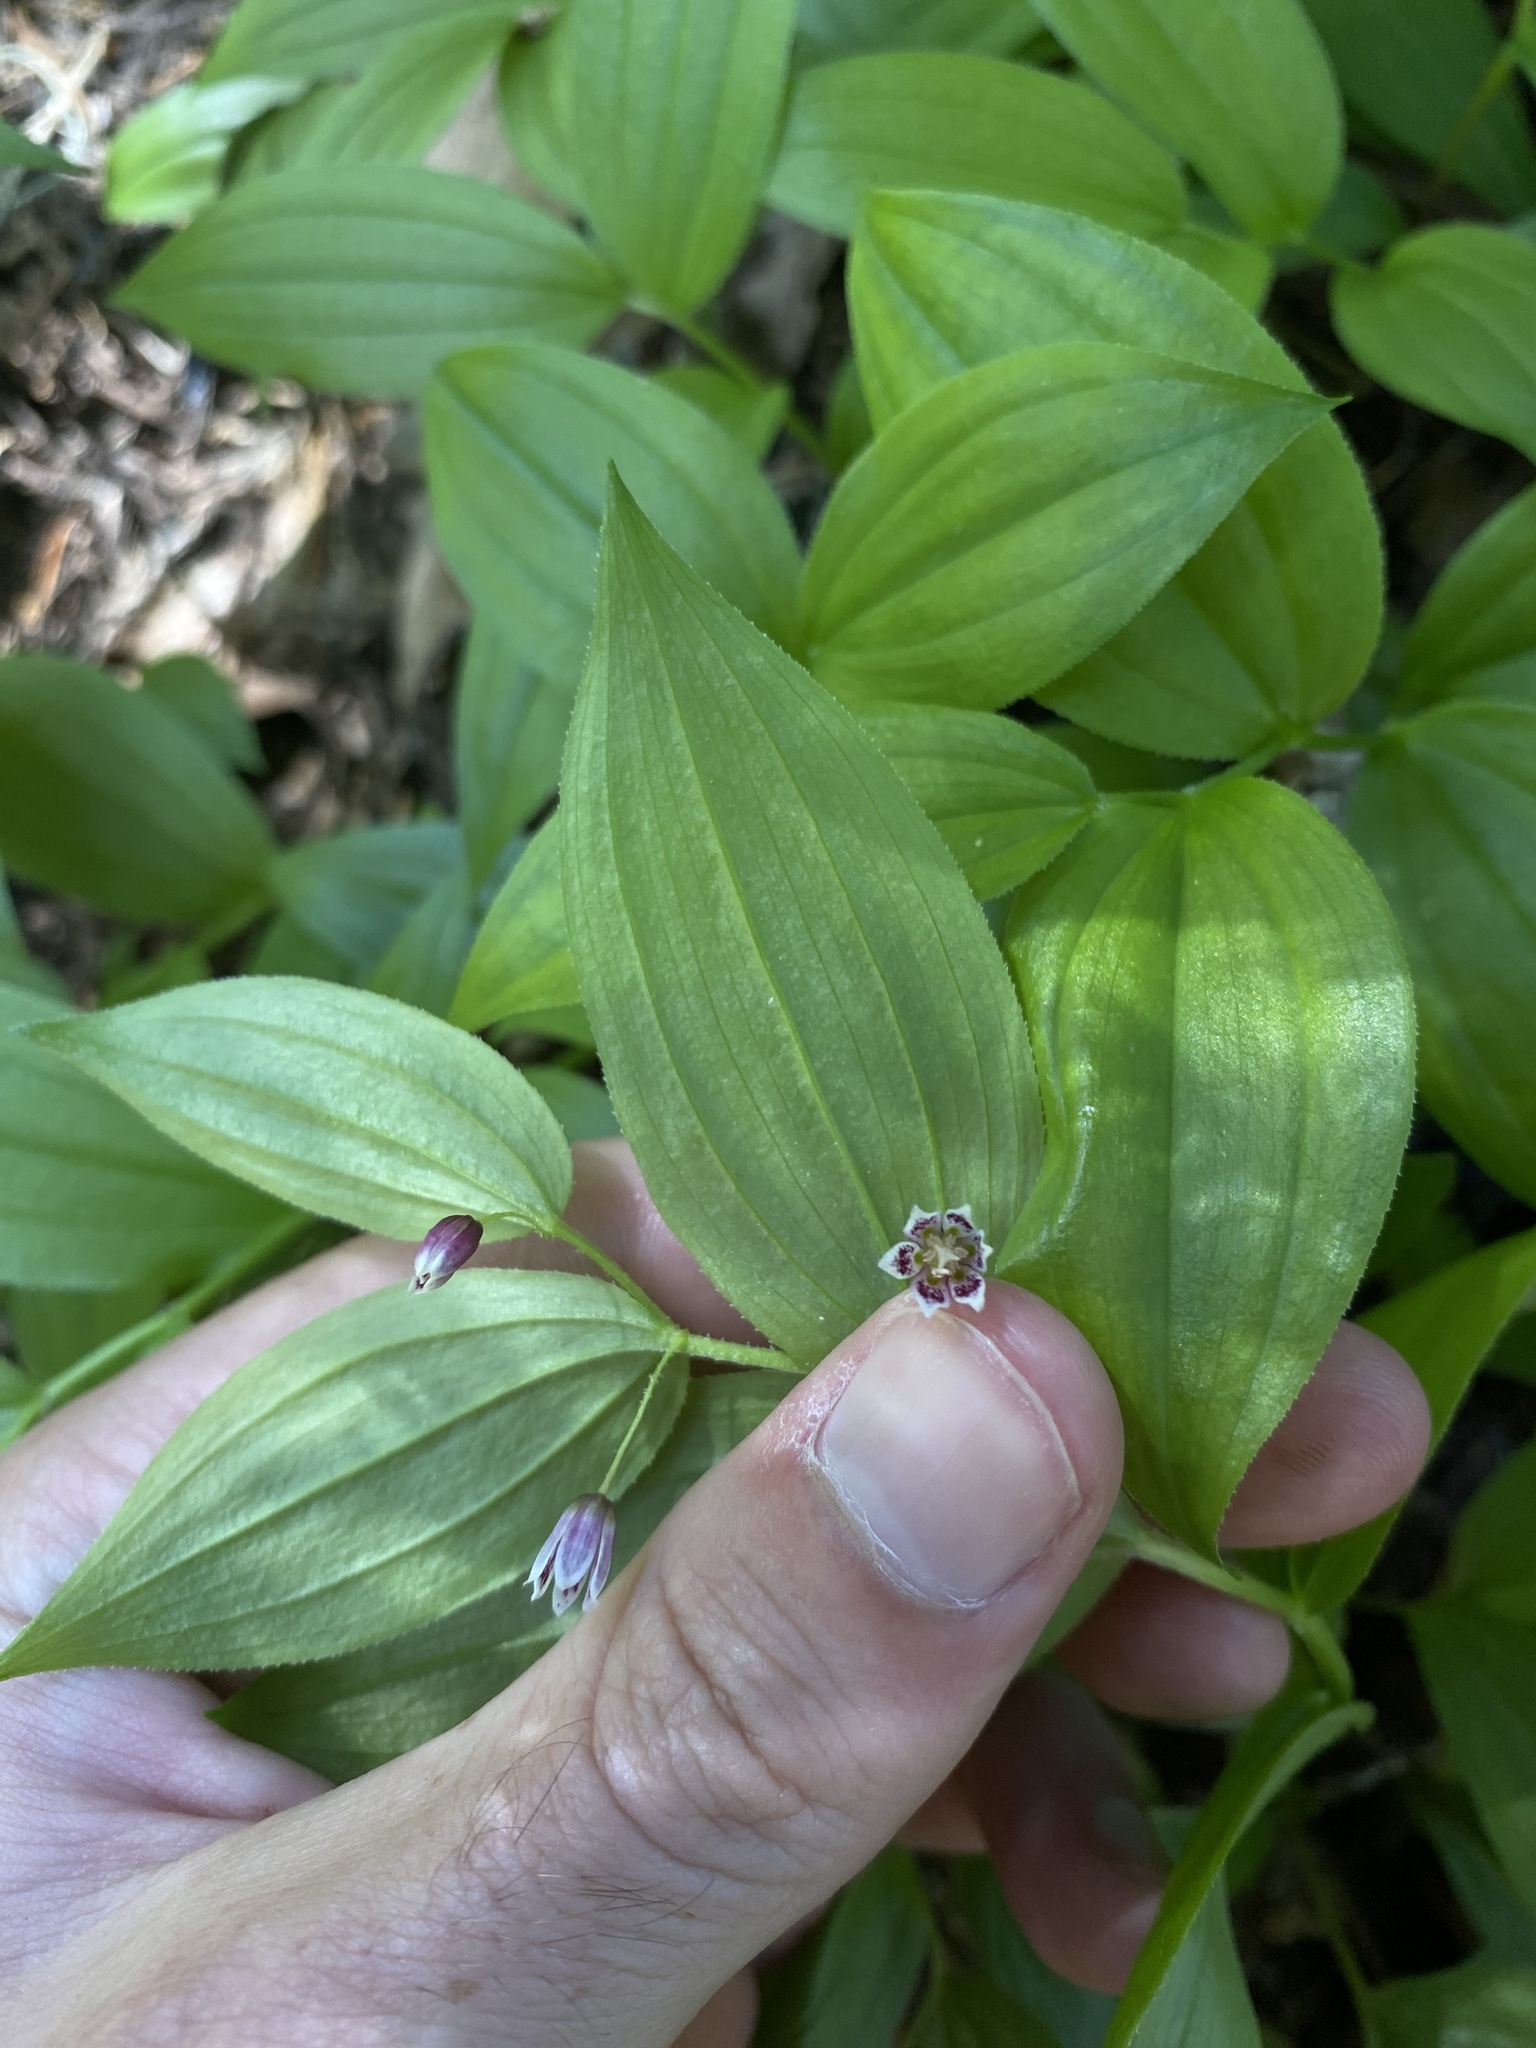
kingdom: Plantae
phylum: Tracheophyta
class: Liliopsida
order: Liliales
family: Liliaceae
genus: Streptopus
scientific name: Streptopus lanceolatus
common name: Rose mandarin
